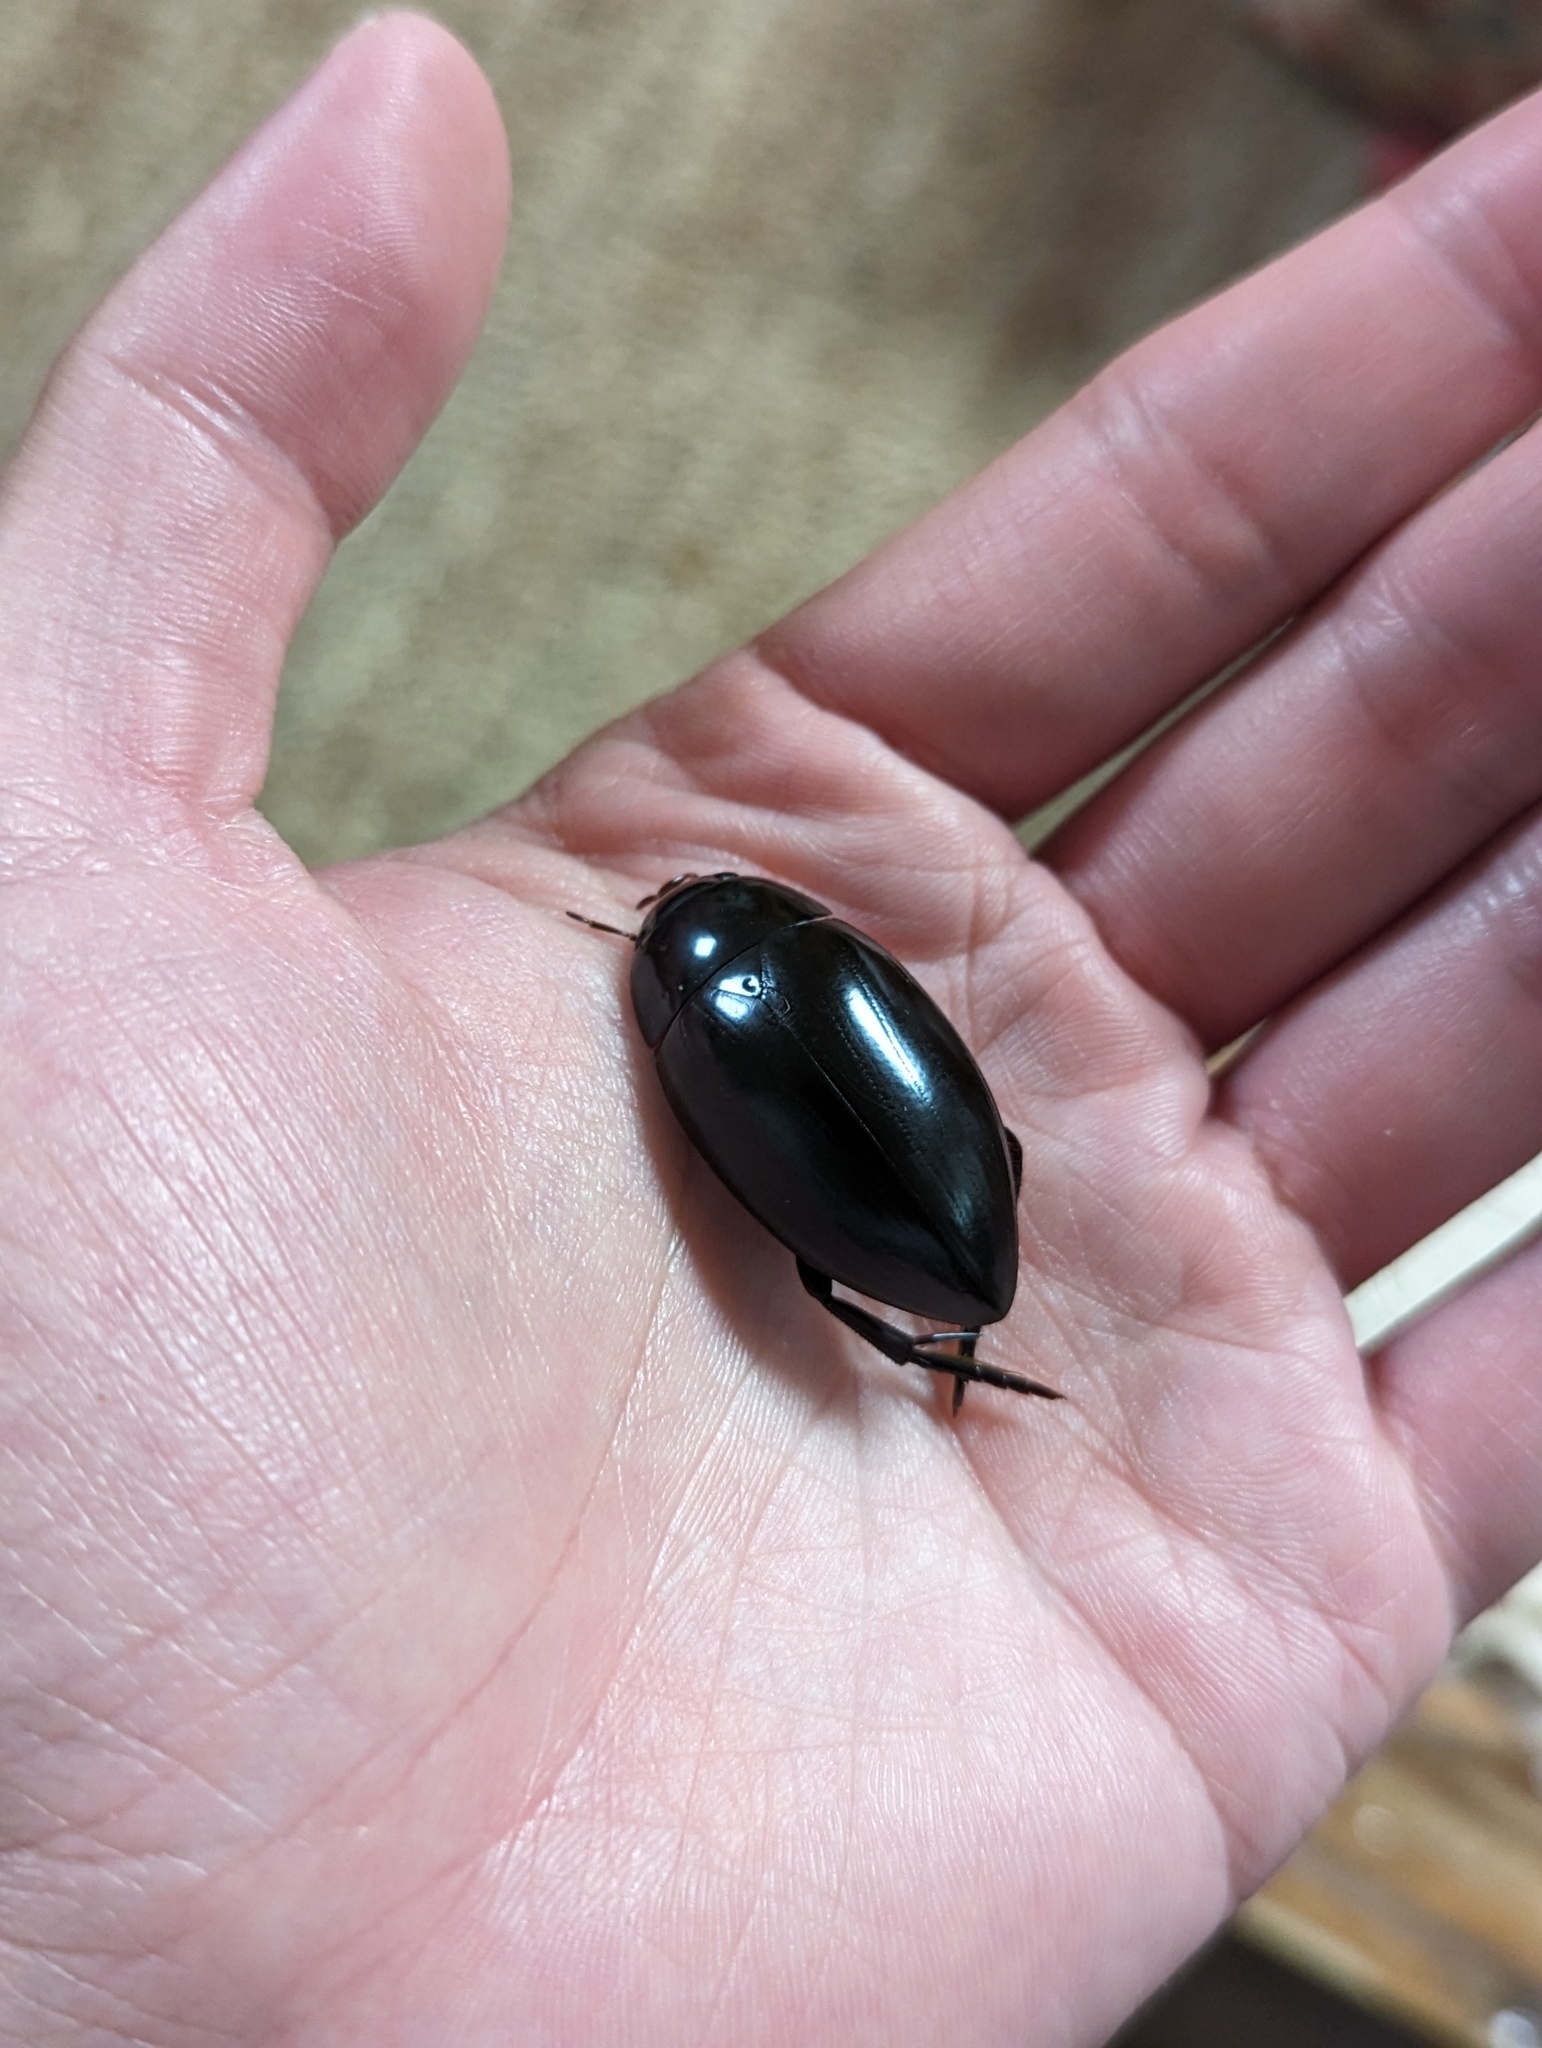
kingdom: Animalia
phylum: Arthropoda
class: Insecta
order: Coleoptera
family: Hydrophilidae
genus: Hydrophilus
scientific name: Hydrophilus ovatus
